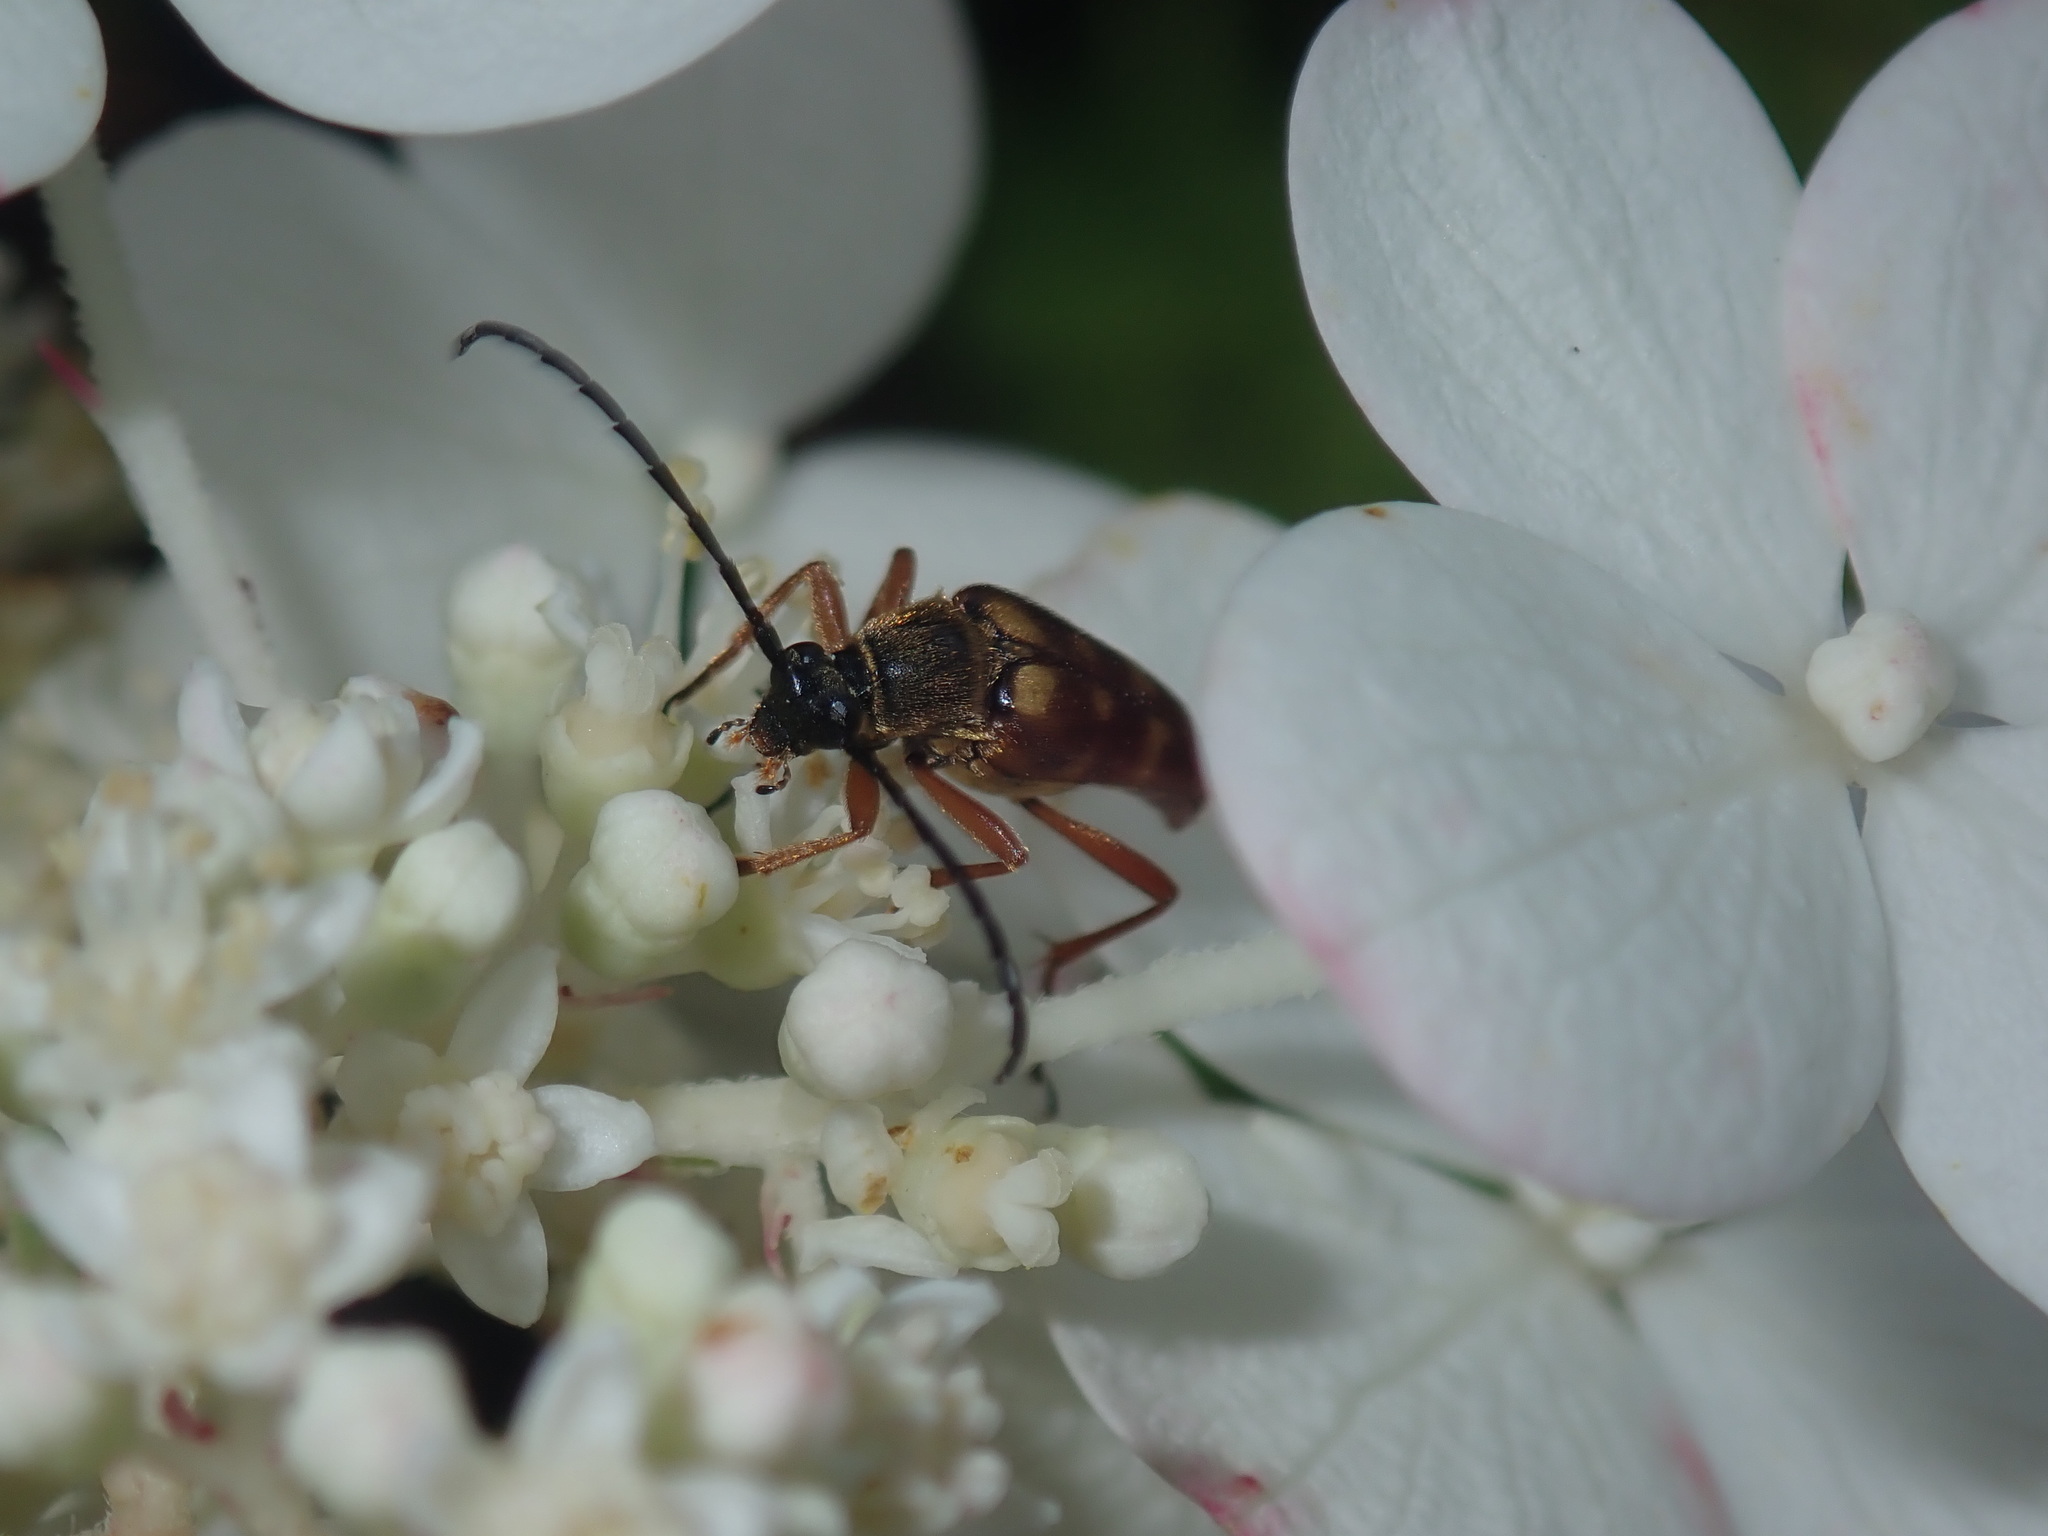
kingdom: Animalia
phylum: Arthropoda
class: Insecta
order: Coleoptera
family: Cerambycidae
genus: Typocerus
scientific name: Typocerus velutinus
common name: Banded longhorn beetle
